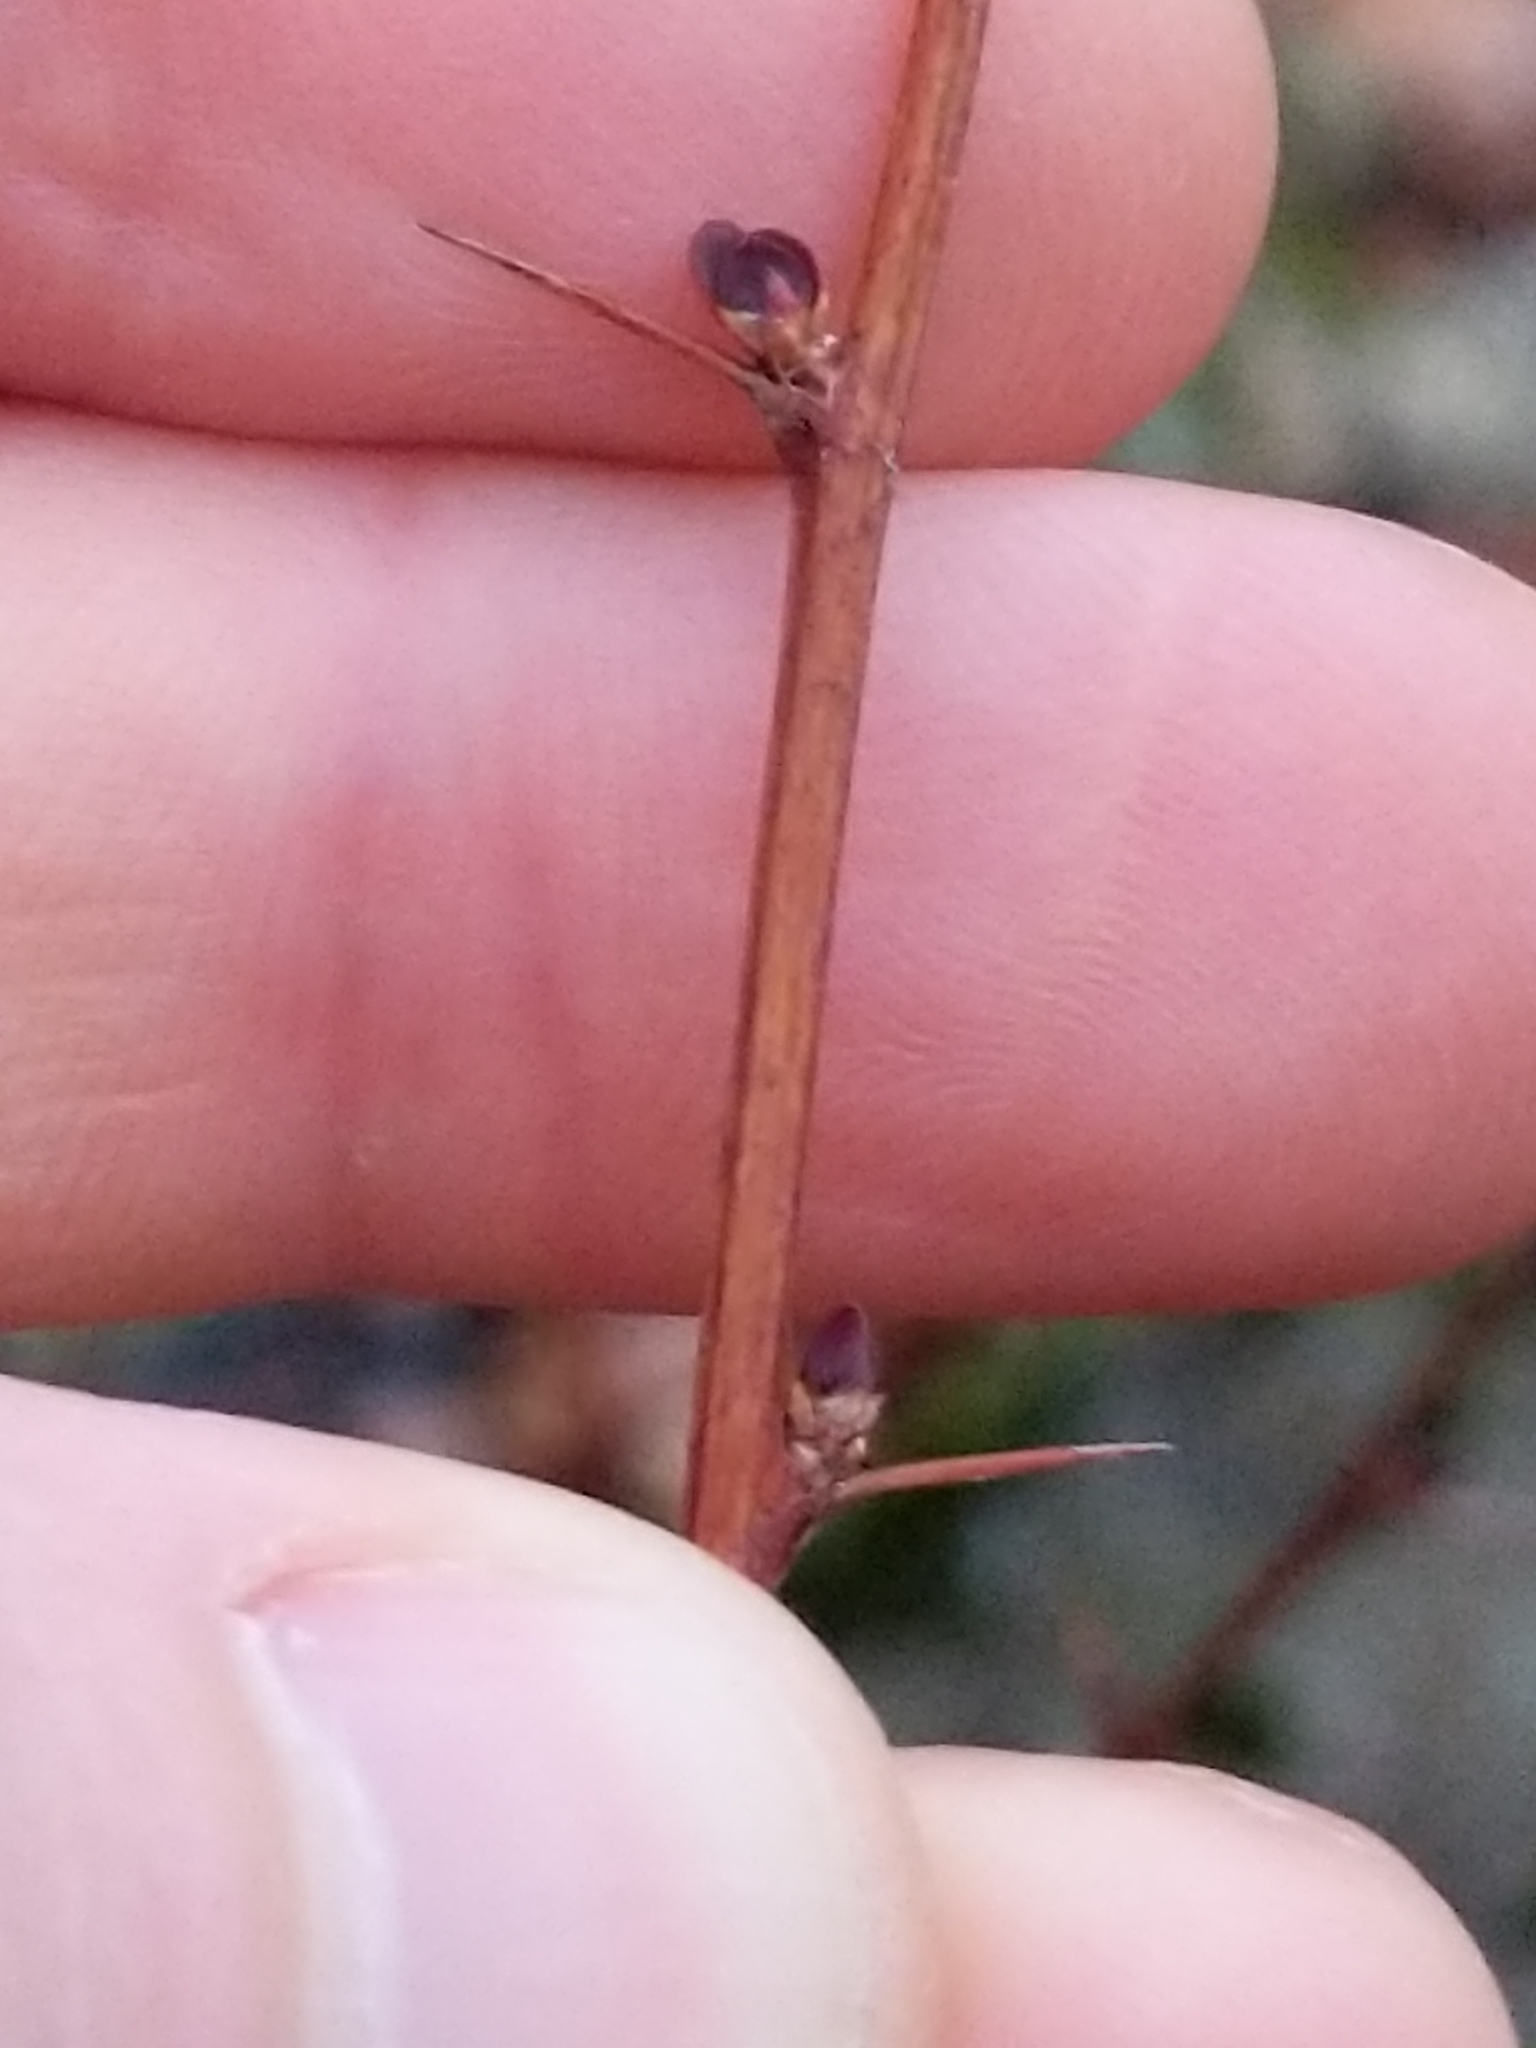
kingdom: Plantae
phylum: Tracheophyta
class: Magnoliopsida
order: Ranunculales
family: Berberidaceae
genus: Berberis
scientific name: Berberis thunbergii
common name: Japanese barberry
